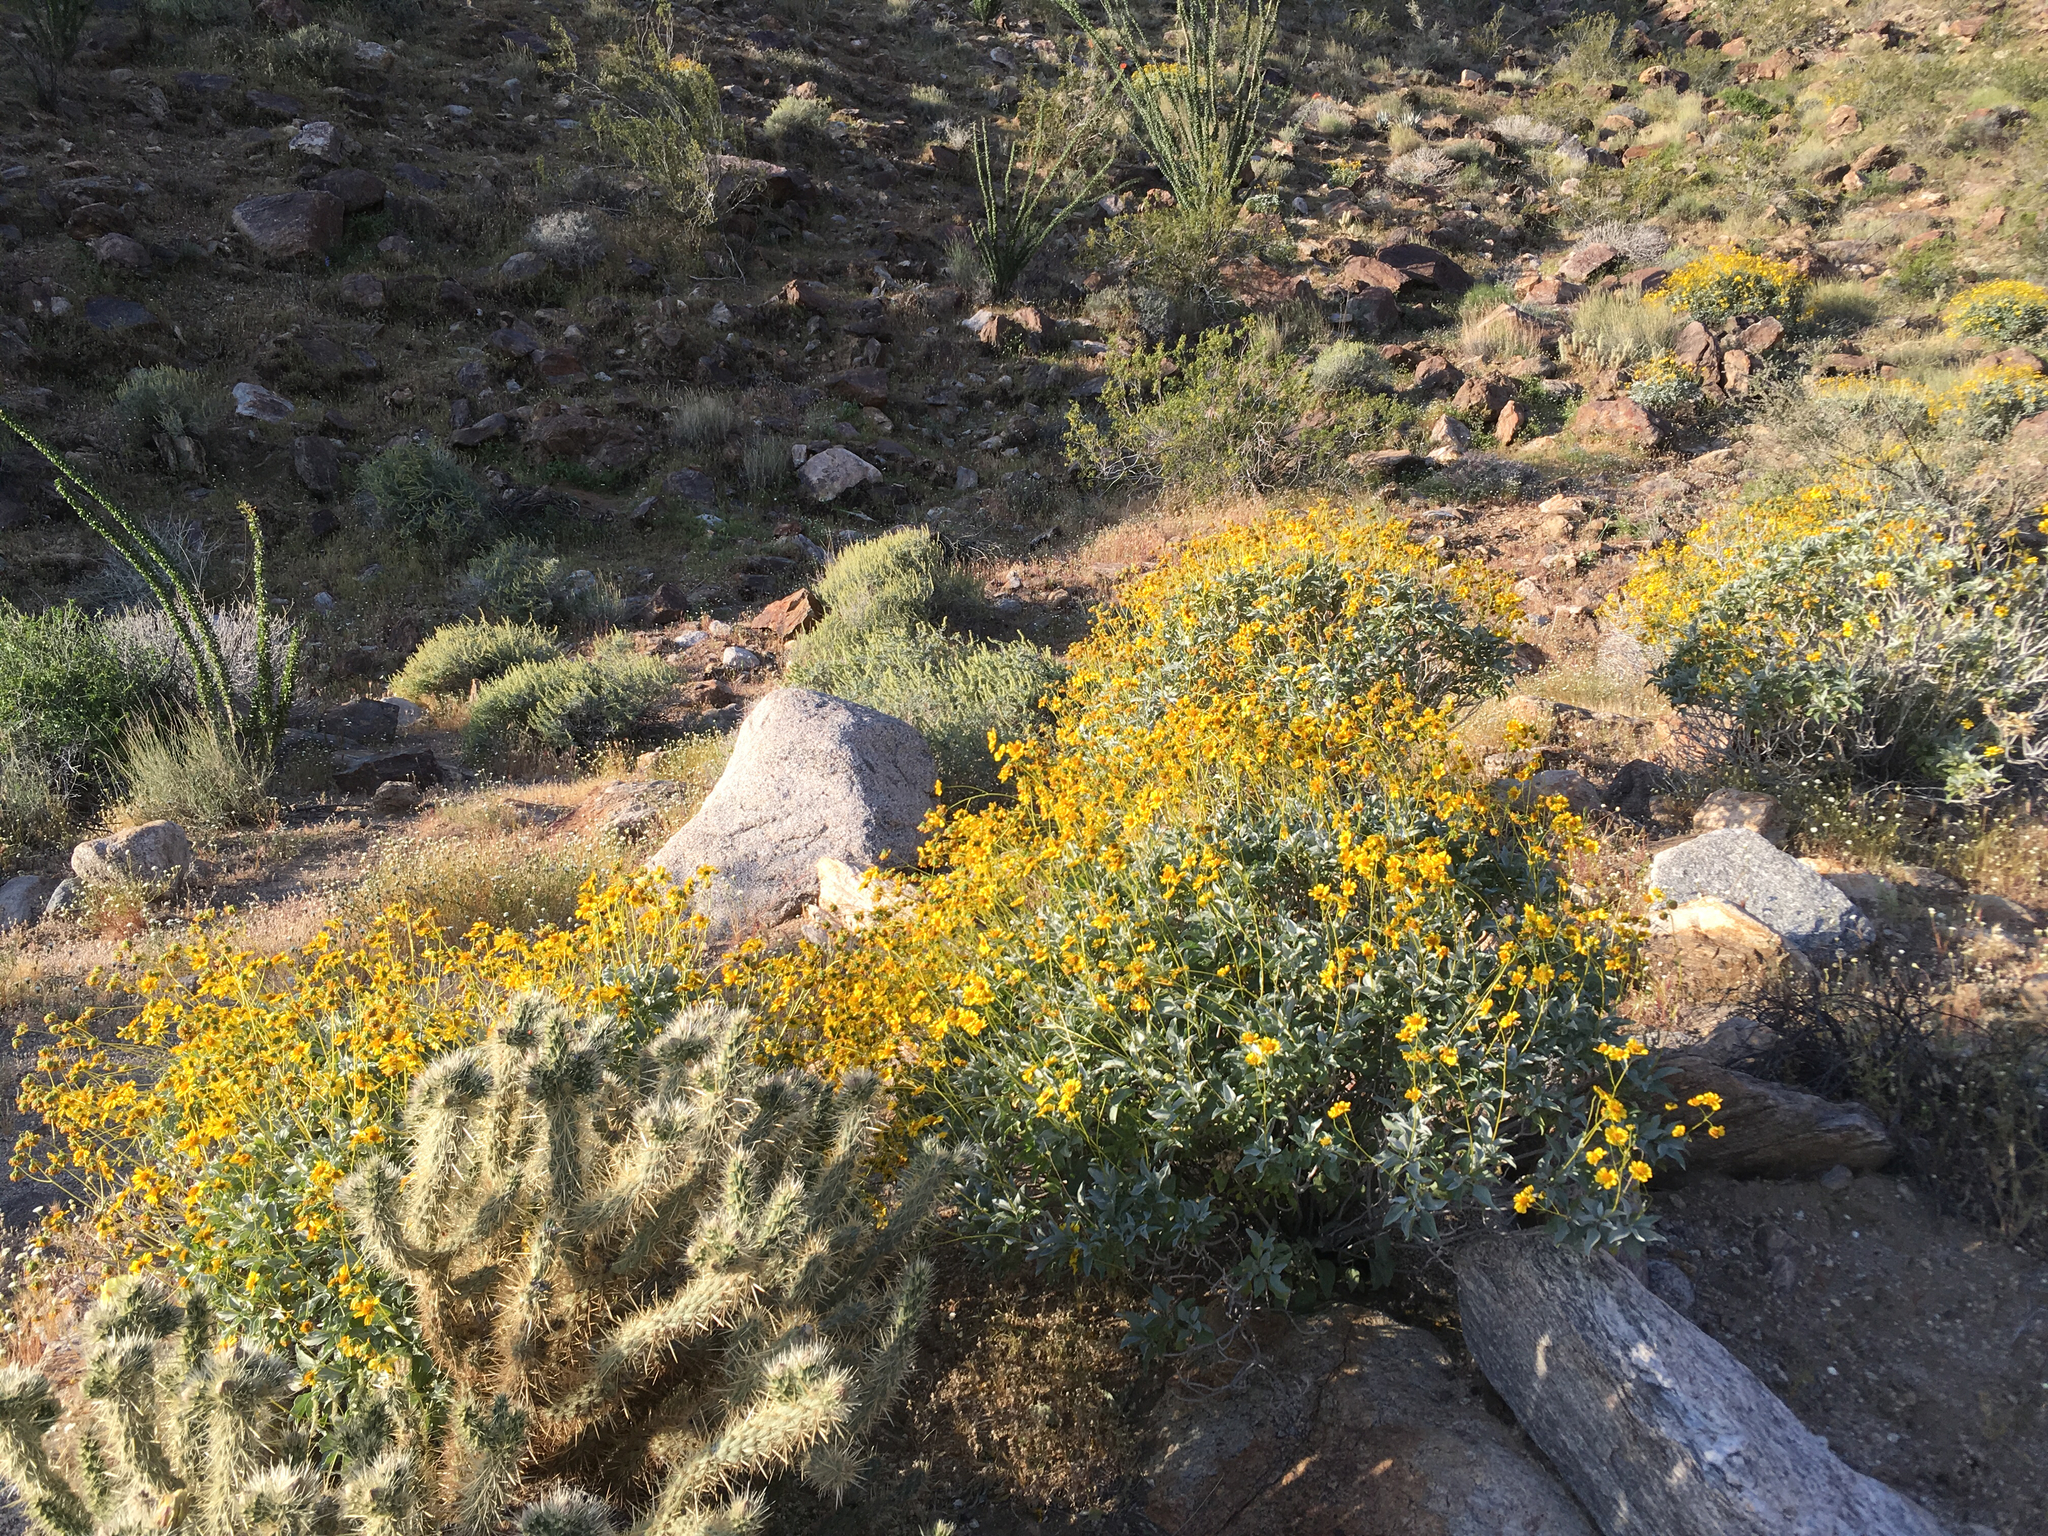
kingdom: Plantae
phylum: Tracheophyta
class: Magnoliopsida
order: Asterales
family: Asteraceae
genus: Encelia
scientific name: Encelia farinosa
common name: Brittlebush
